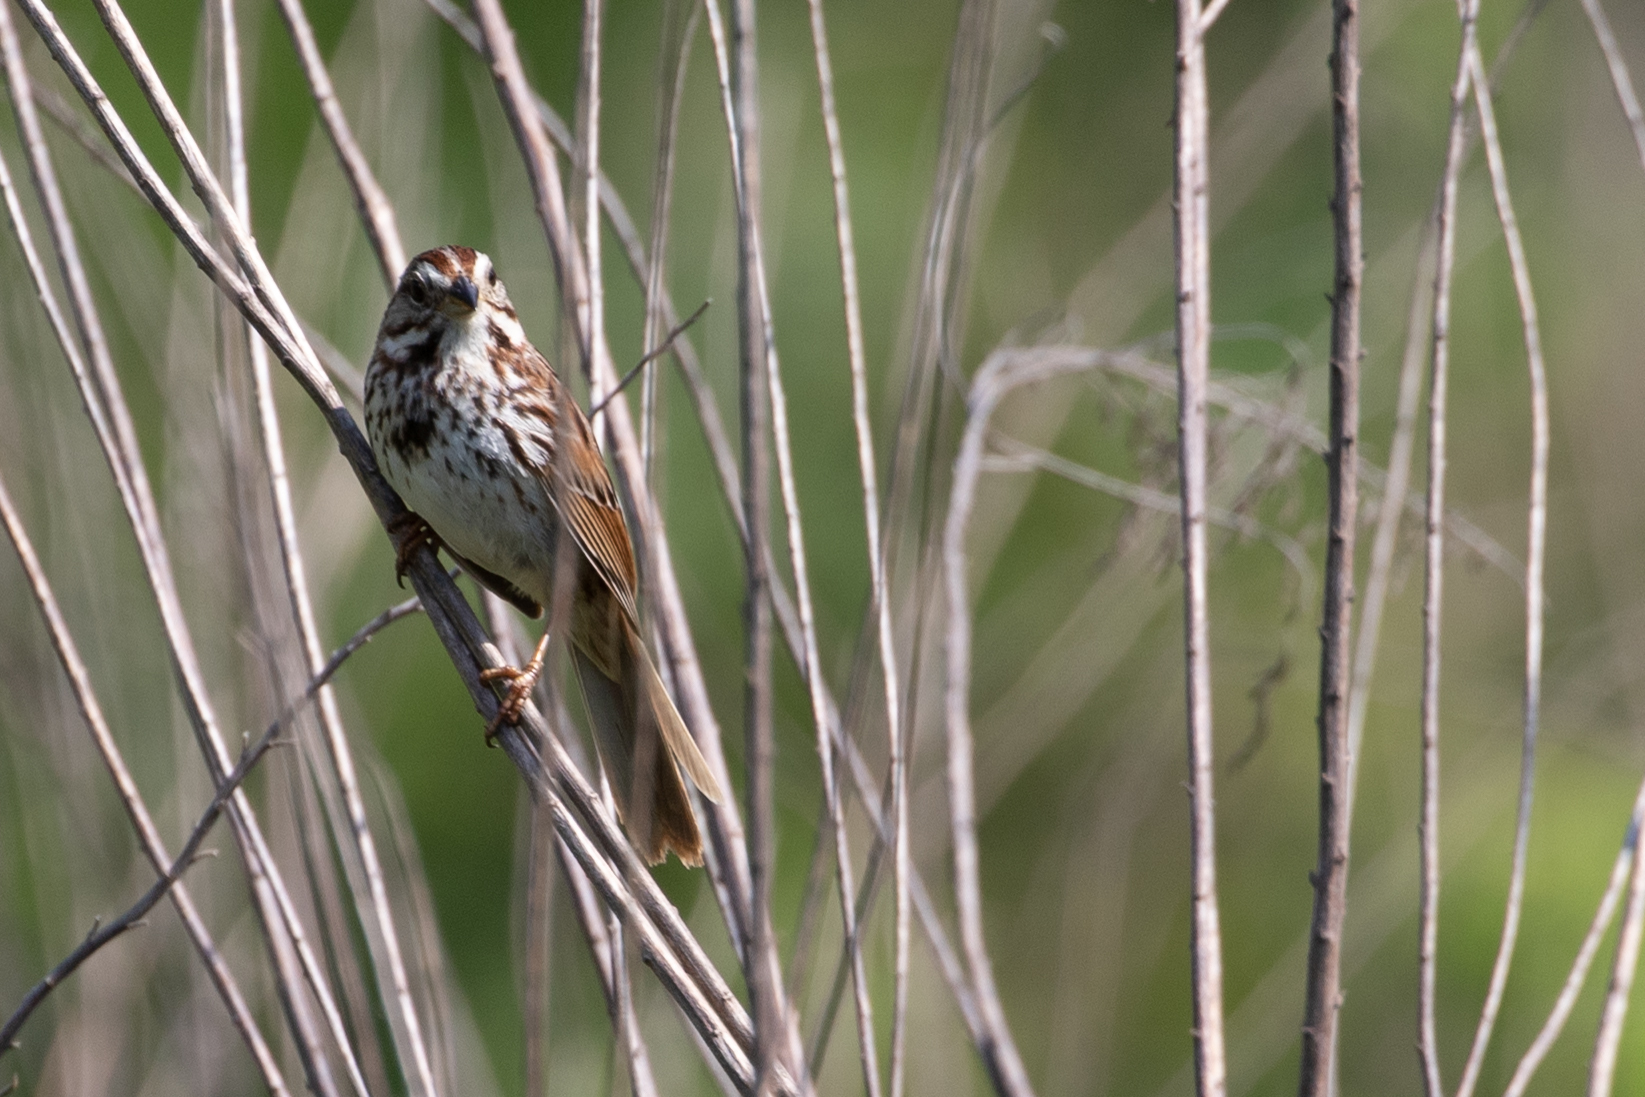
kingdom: Animalia
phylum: Chordata
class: Aves
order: Passeriformes
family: Passerellidae
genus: Melospiza
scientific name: Melospiza melodia
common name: Song sparrow
